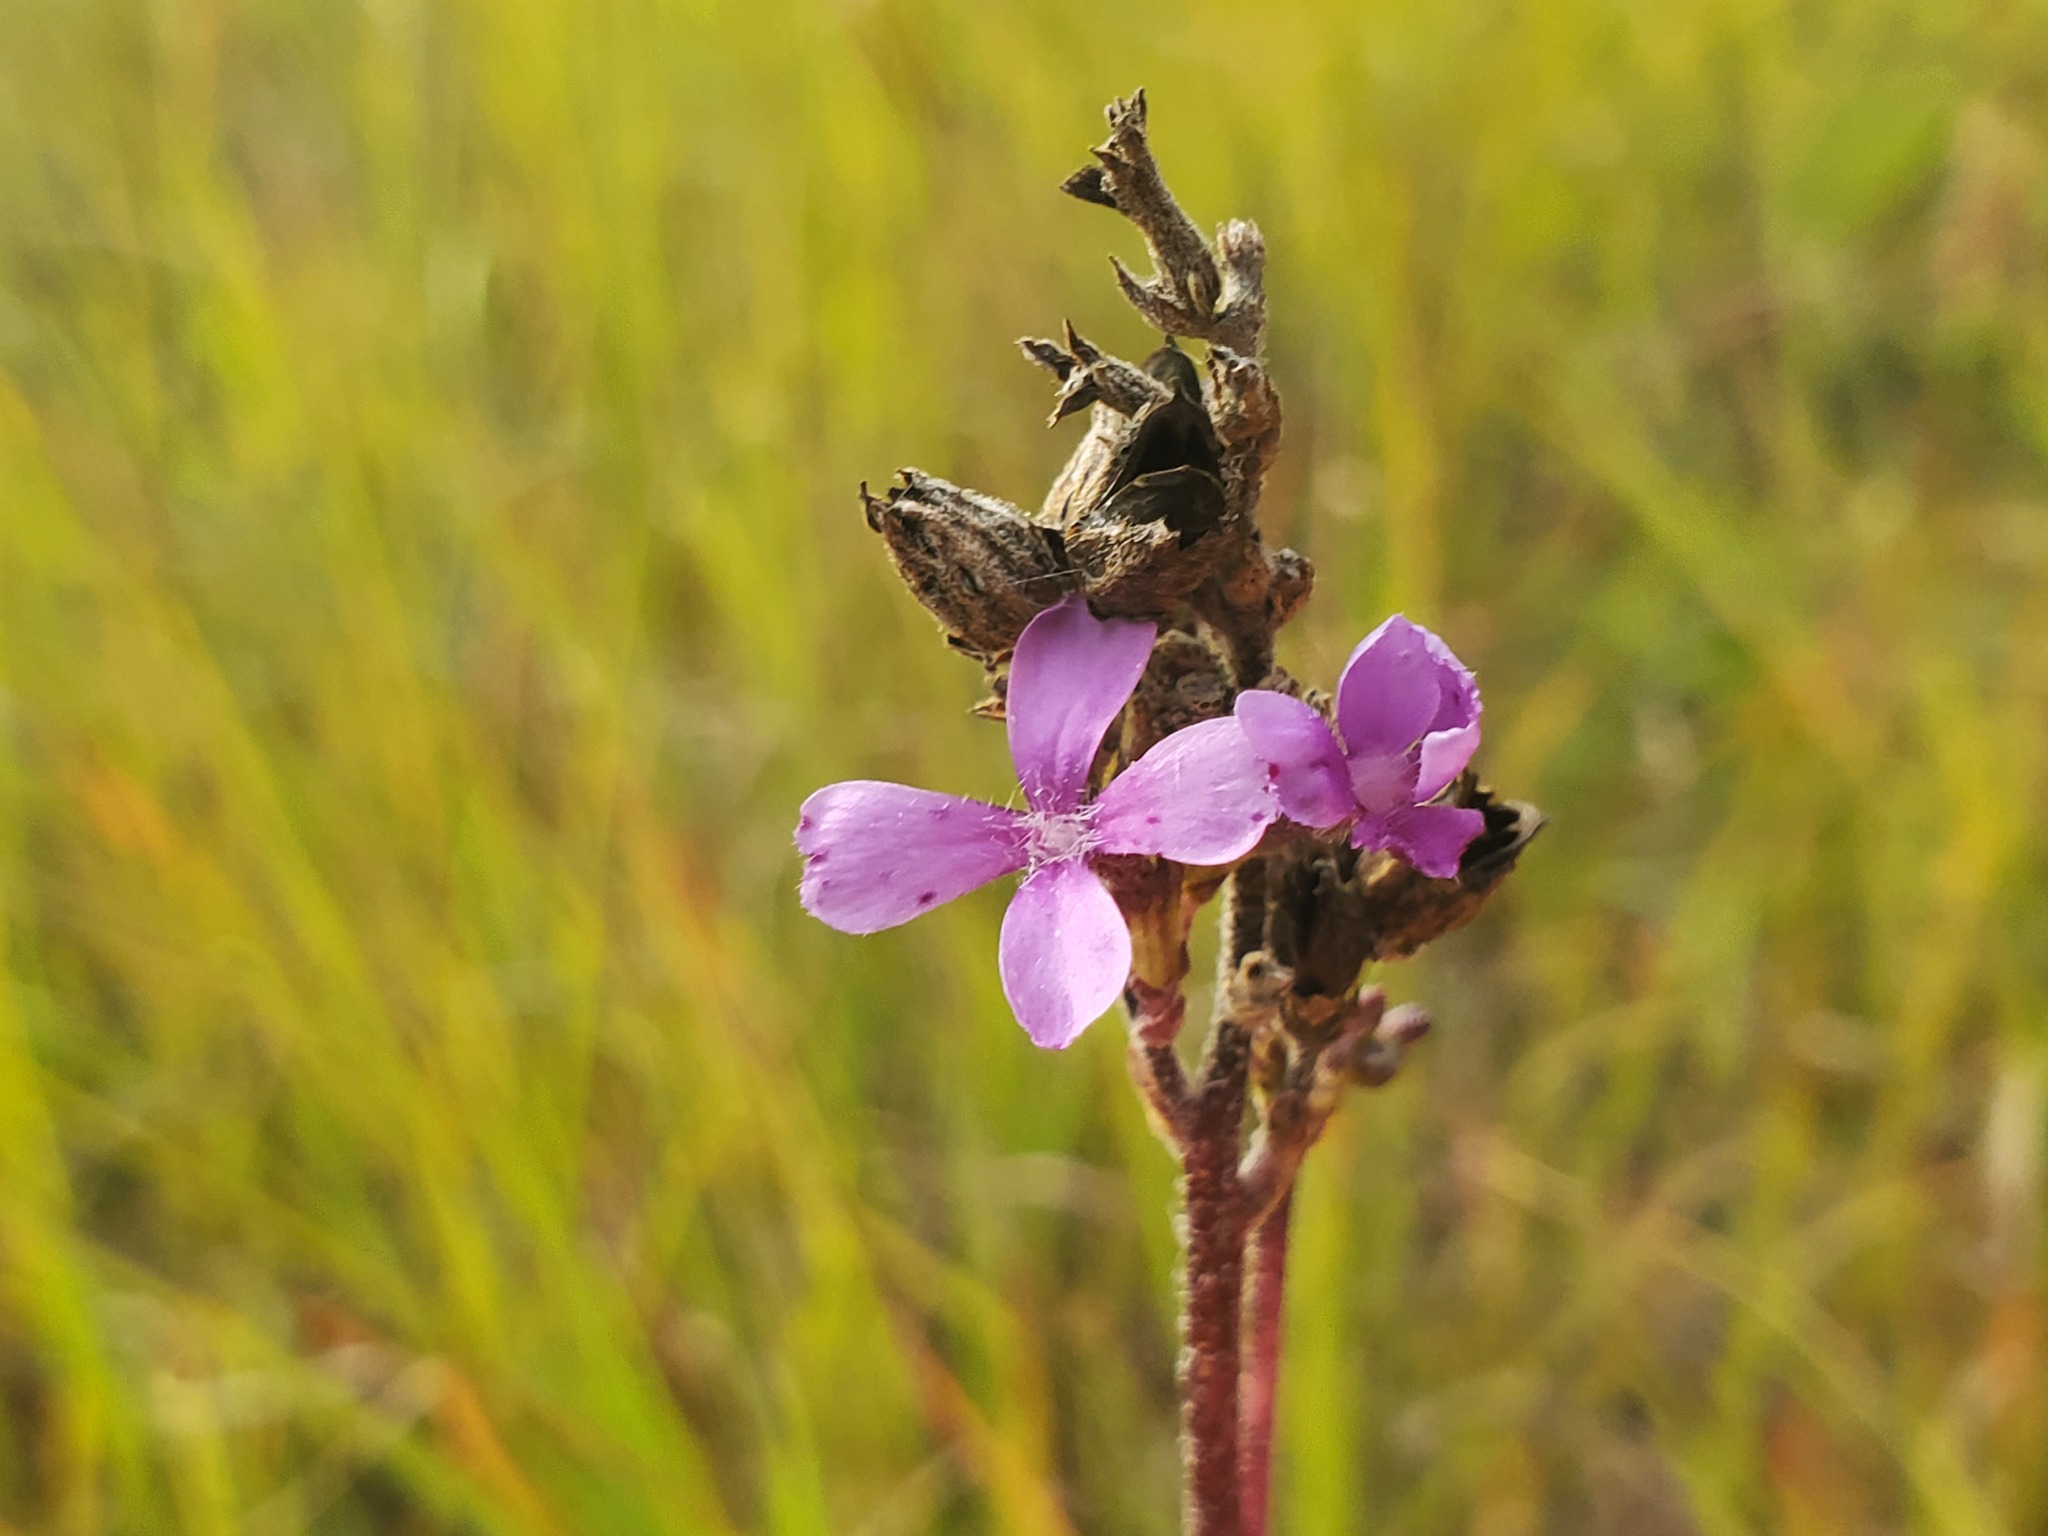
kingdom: Plantae
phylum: Tracheophyta
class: Magnoliopsida
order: Lamiales
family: Orobanchaceae
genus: Buchnera
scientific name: Buchnera americana
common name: American bluehearts
